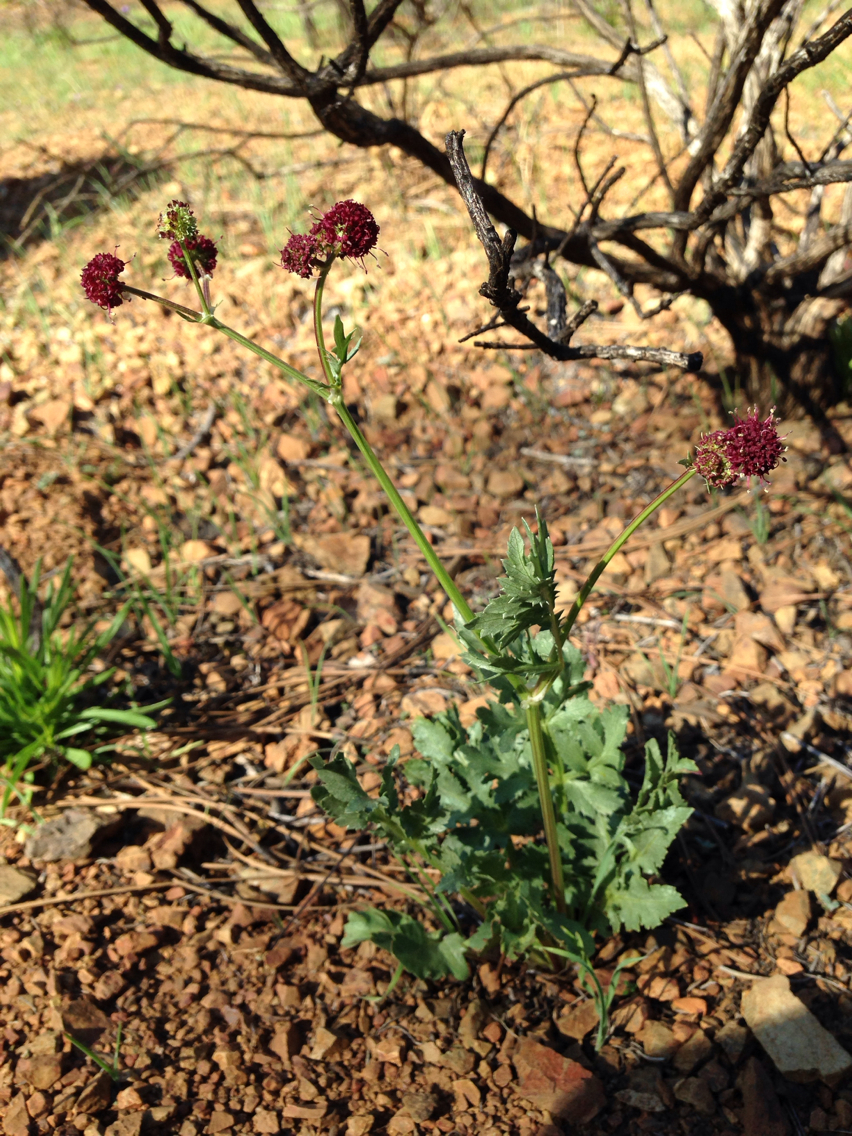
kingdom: Plantae
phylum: Tracheophyta
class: Magnoliopsida
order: Apiales
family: Apiaceae
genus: Sanicula
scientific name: Sanicula bipinnatifida
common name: Shoe-buttons
